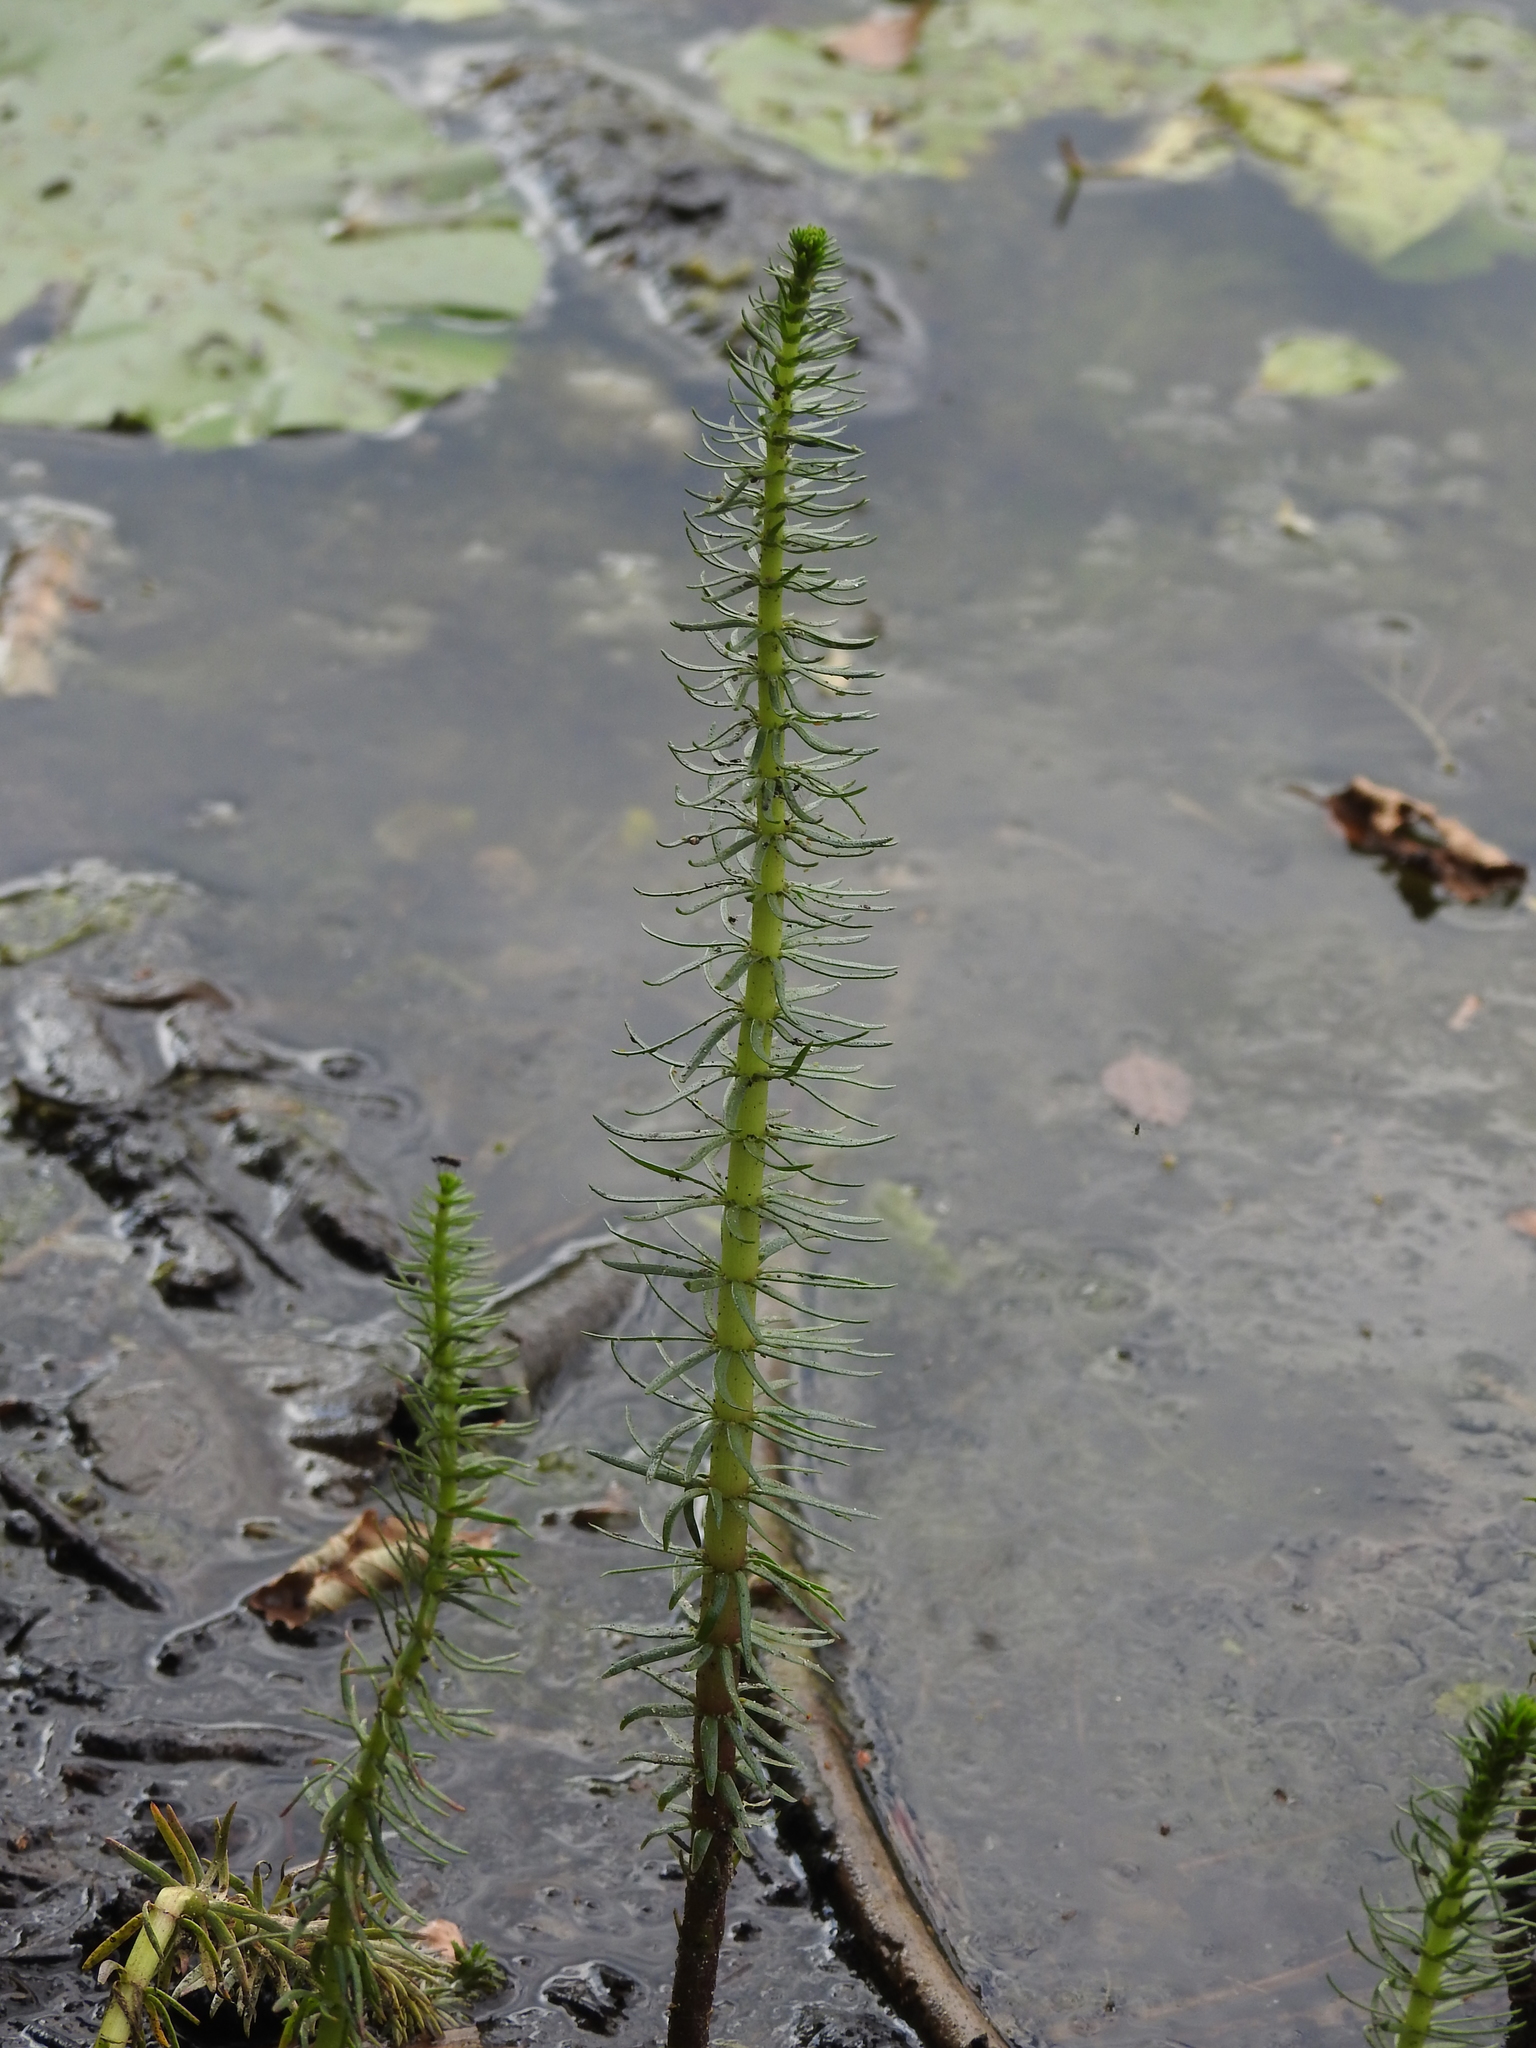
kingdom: Plantae
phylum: Tracheophyta
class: Magnoliopsida
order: Lamiales
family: Plantaginaceae
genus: Hippuris
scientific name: Hippuris vulgaris
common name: Mare's-tail
